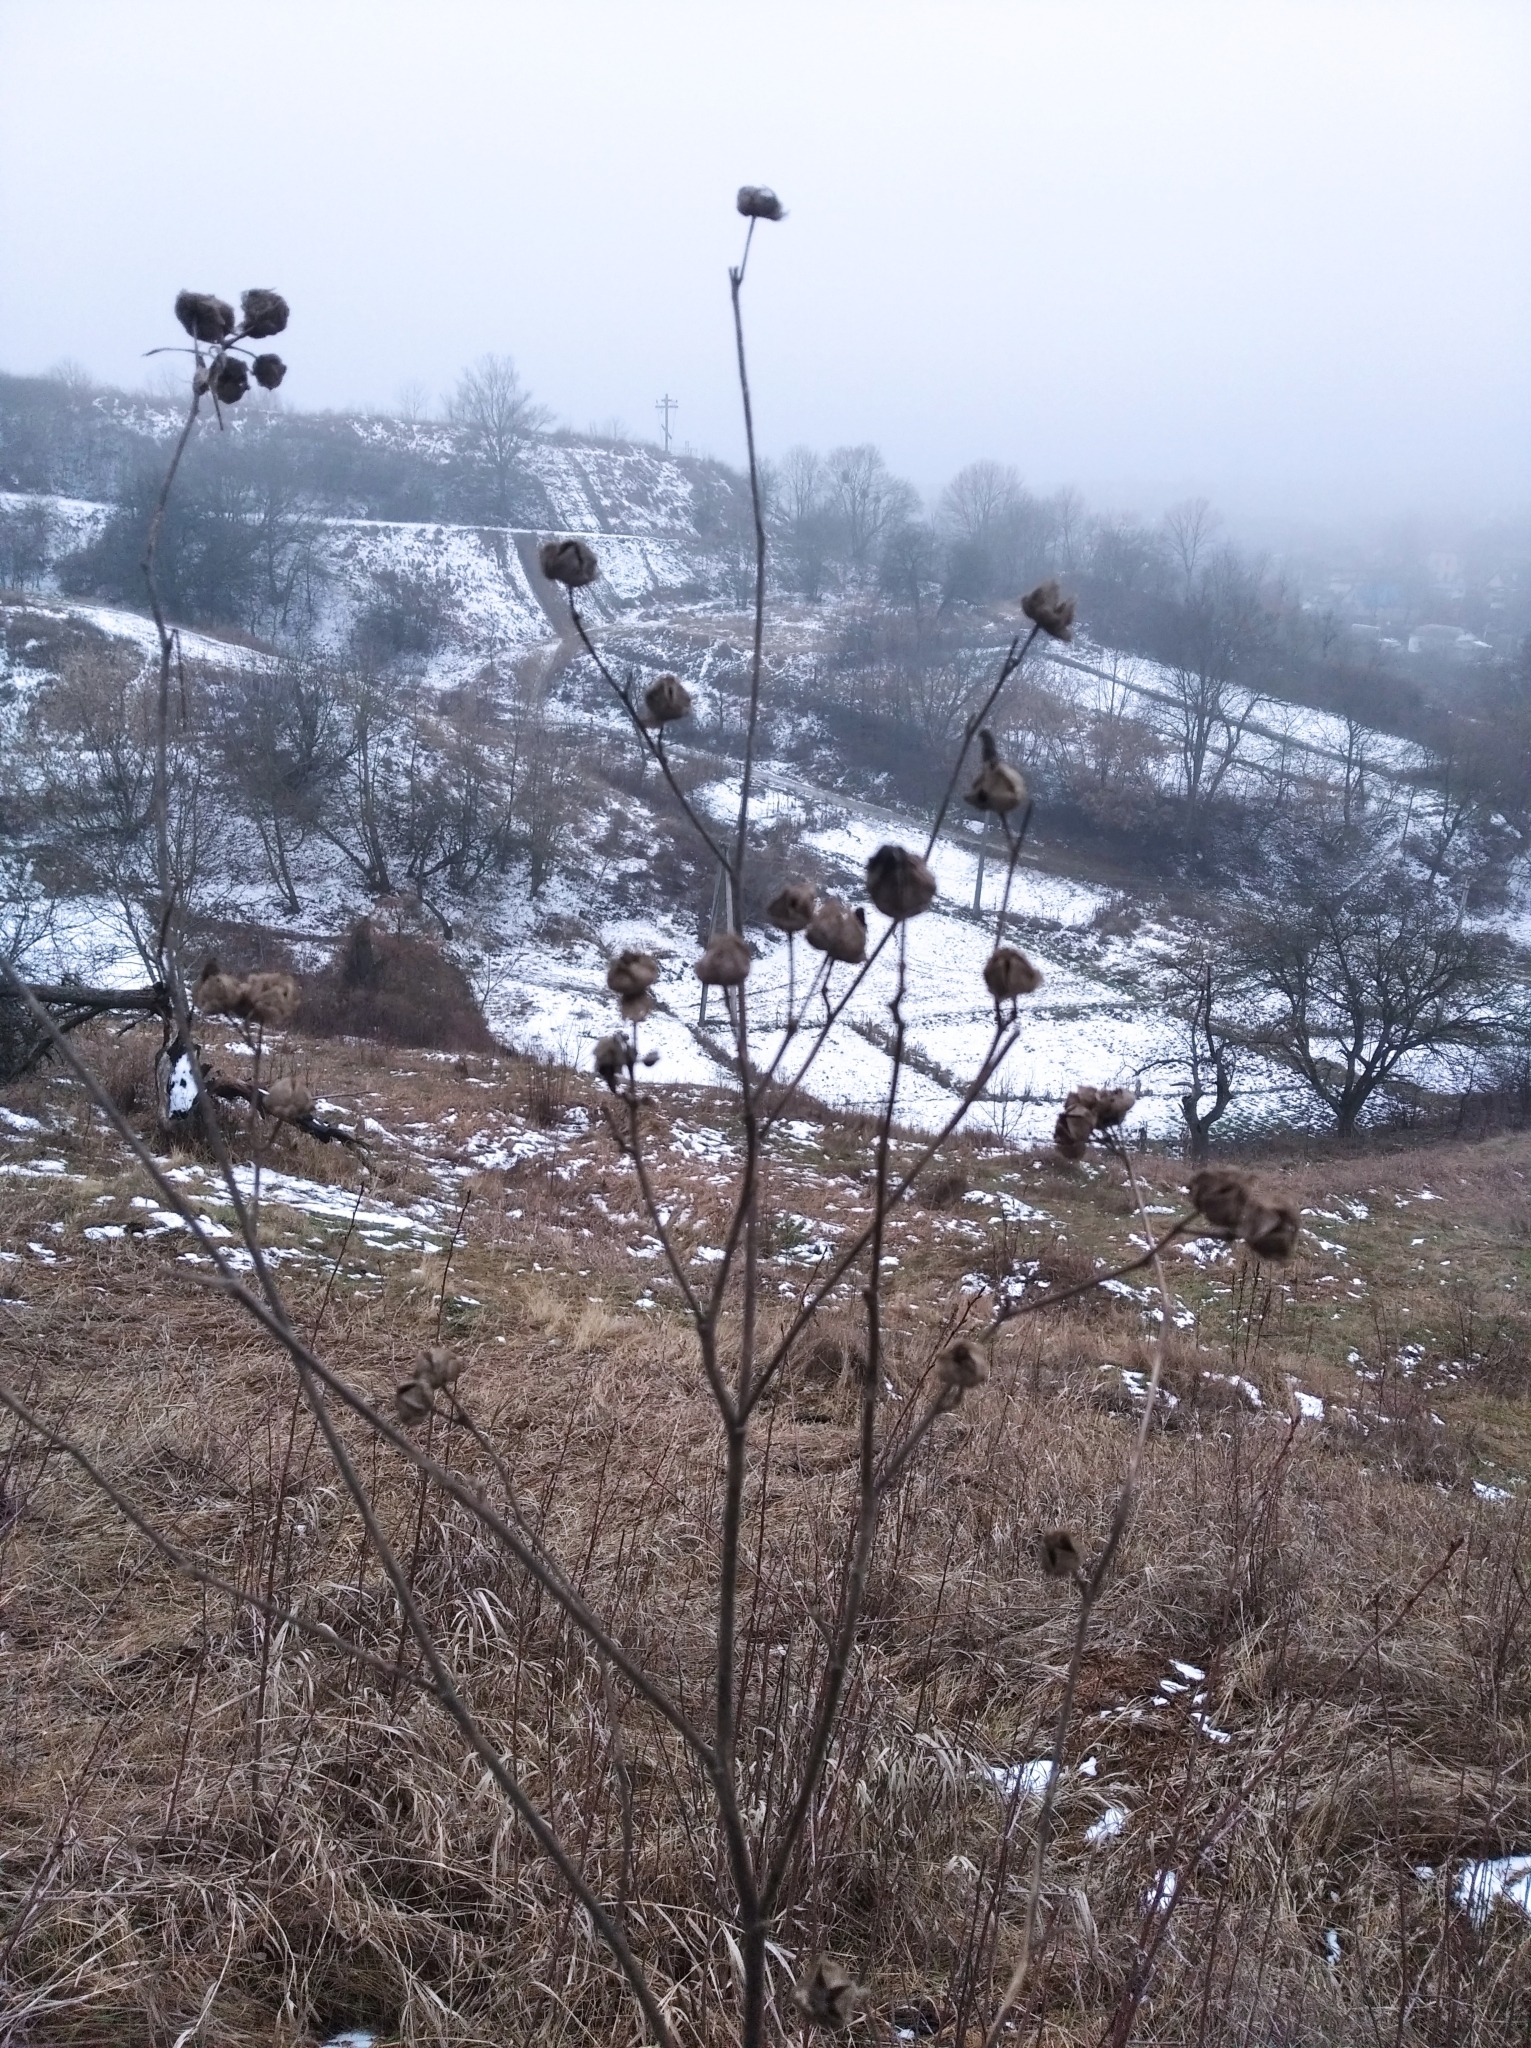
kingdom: Plantae
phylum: Tracheophyta
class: Magnoliopsida
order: Malvales
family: Malvaceae
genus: Malva
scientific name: Malva thuringiaca
